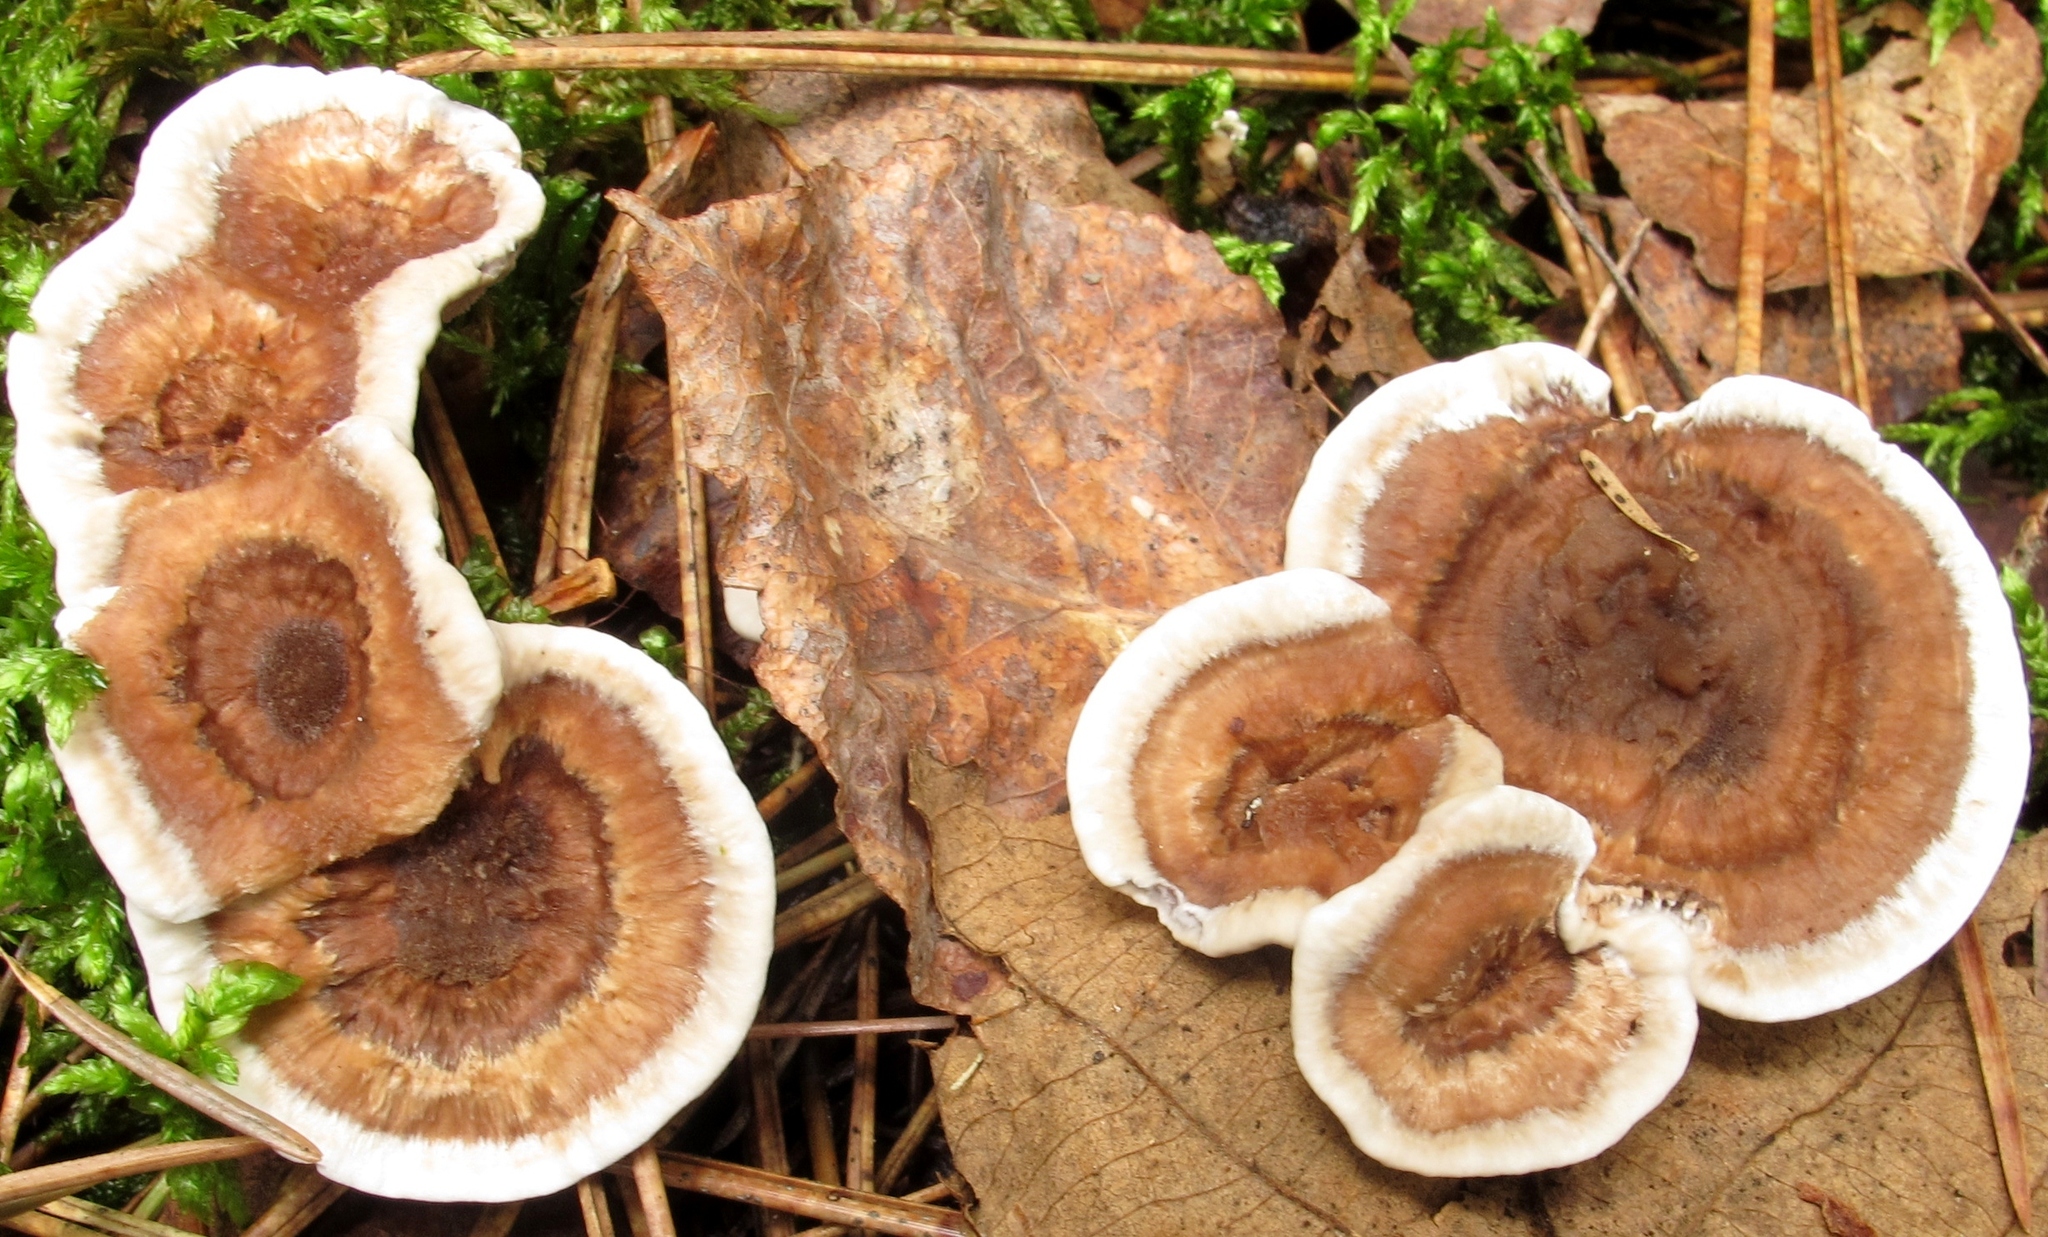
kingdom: Fungi
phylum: Basidiomycota
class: Agaricomycetes
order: Thelephorales
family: Thelephoraceae
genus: Phellodon
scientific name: Phellodon confluens
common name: Fused tooth
